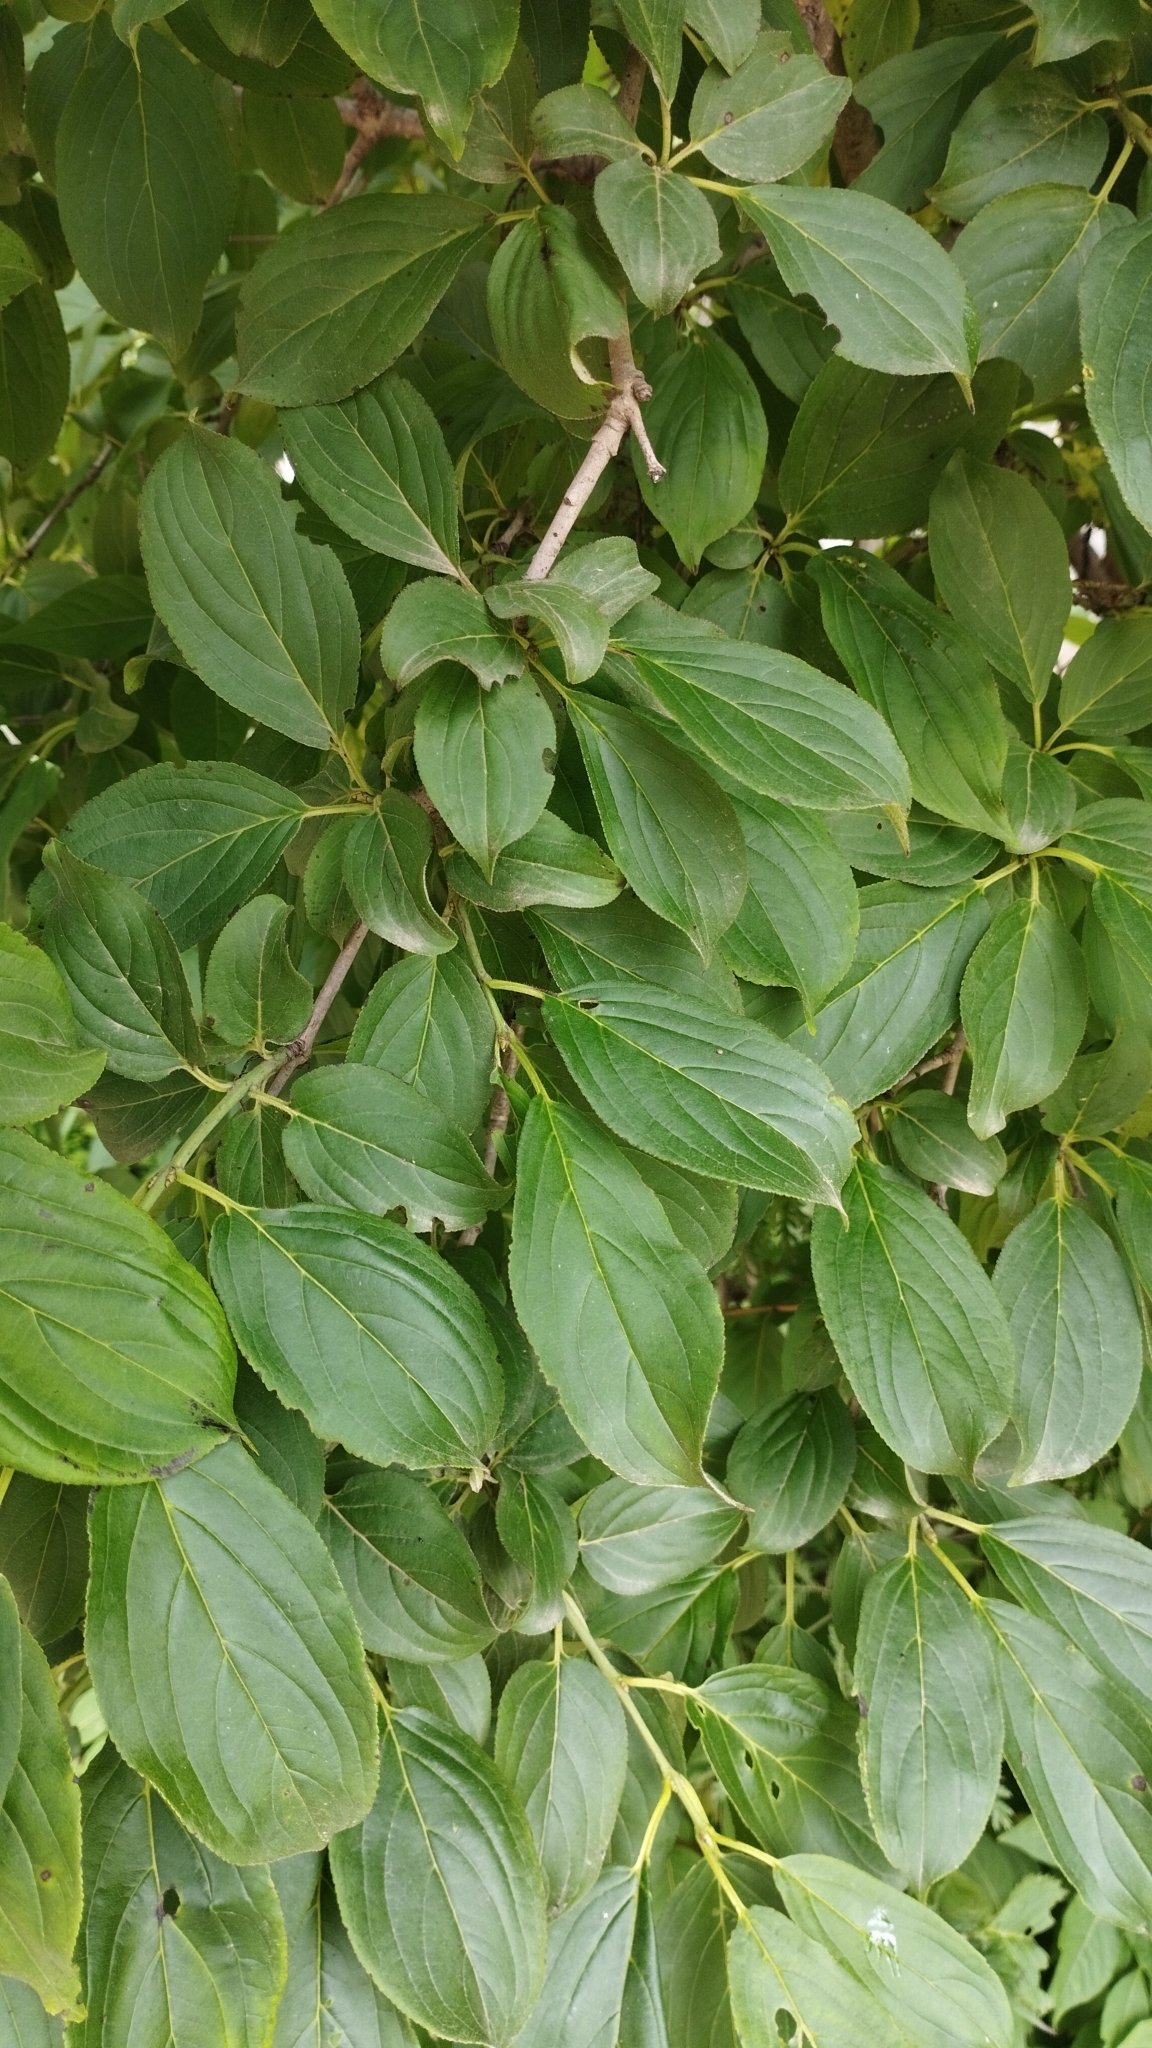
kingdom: Plantae
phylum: Tracheophyta
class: Magnoliopsida
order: Rosales
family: Rhamnaceae
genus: Rhamnus
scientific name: Rhamnus virgata
